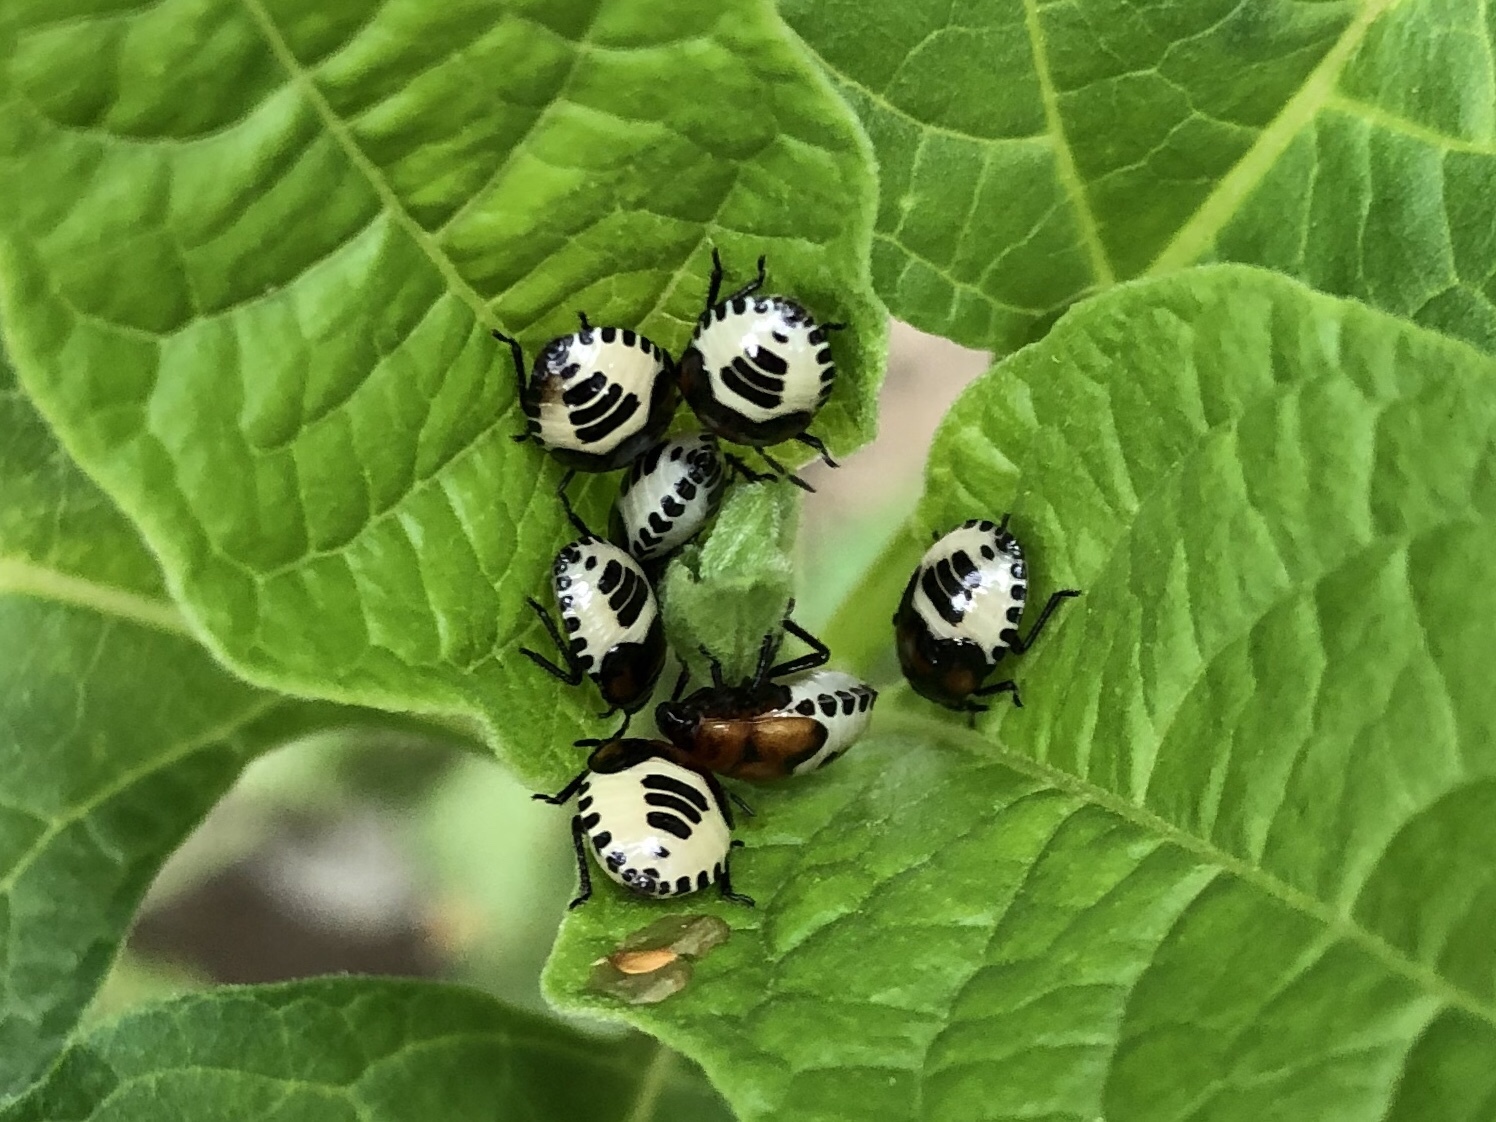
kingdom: Animalia
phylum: Arthropoda
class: Insecta
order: Hemiptera
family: Cydnidae
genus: Tritomegas
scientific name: Tritomegas sexmaculatus
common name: Rambur's pied shieldbug
